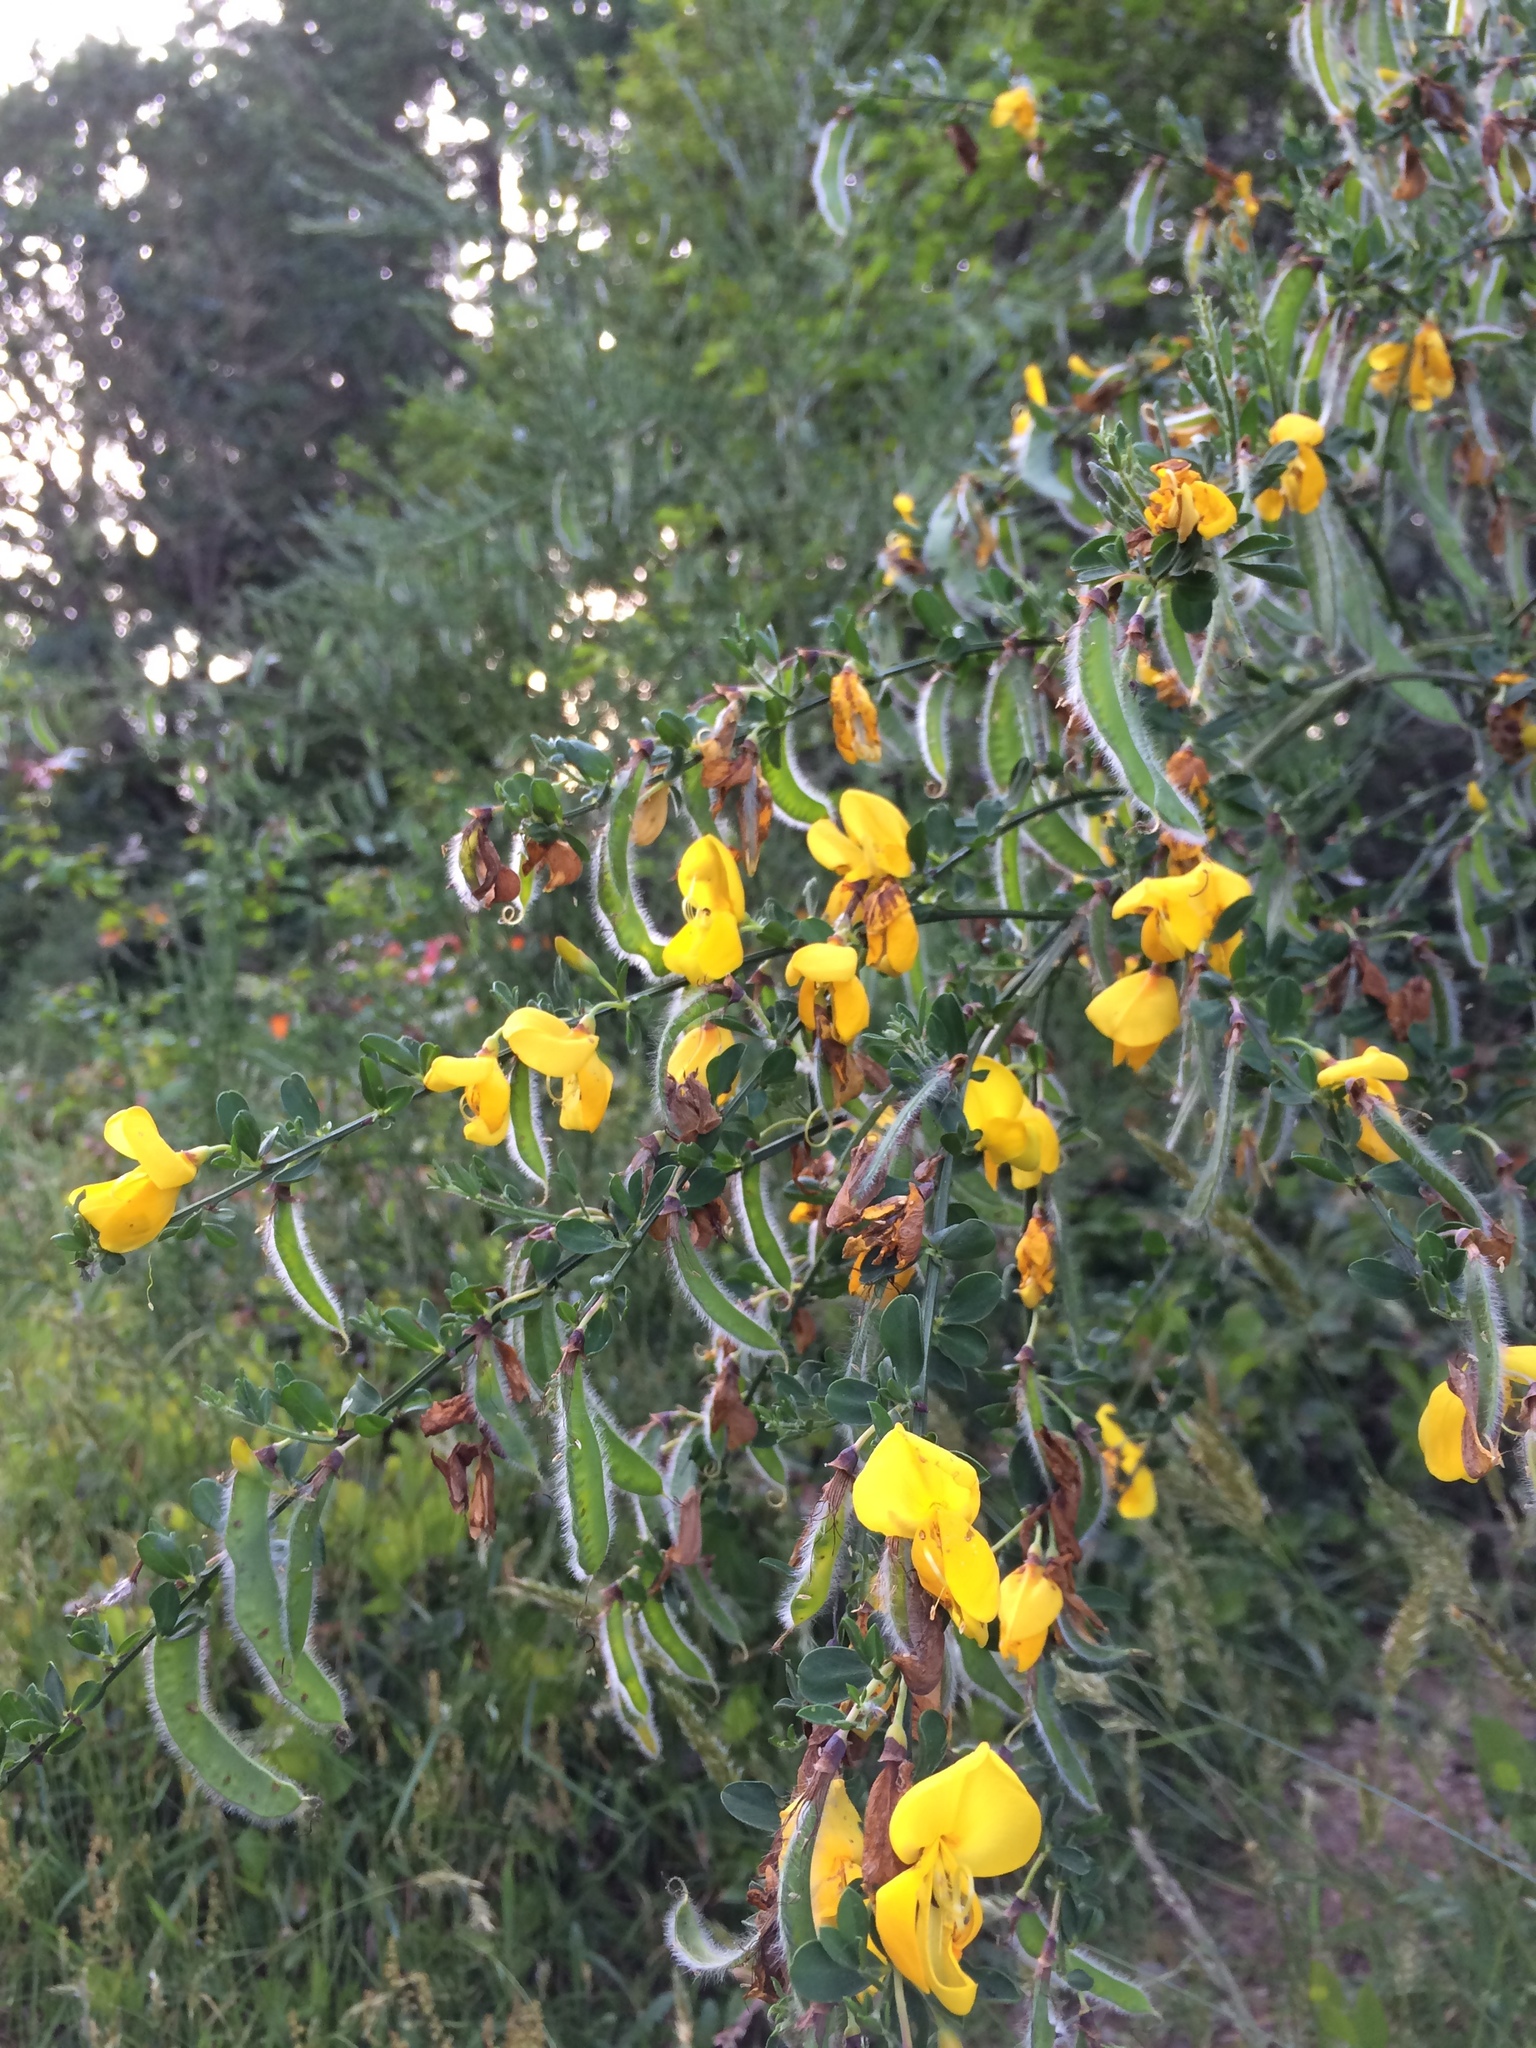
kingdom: Plantae
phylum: Tracheophyta
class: Magnoliopsida
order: Fabales
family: Fabaceae
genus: Cytisus
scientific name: Cytisus scoparius
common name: Scotch broom
